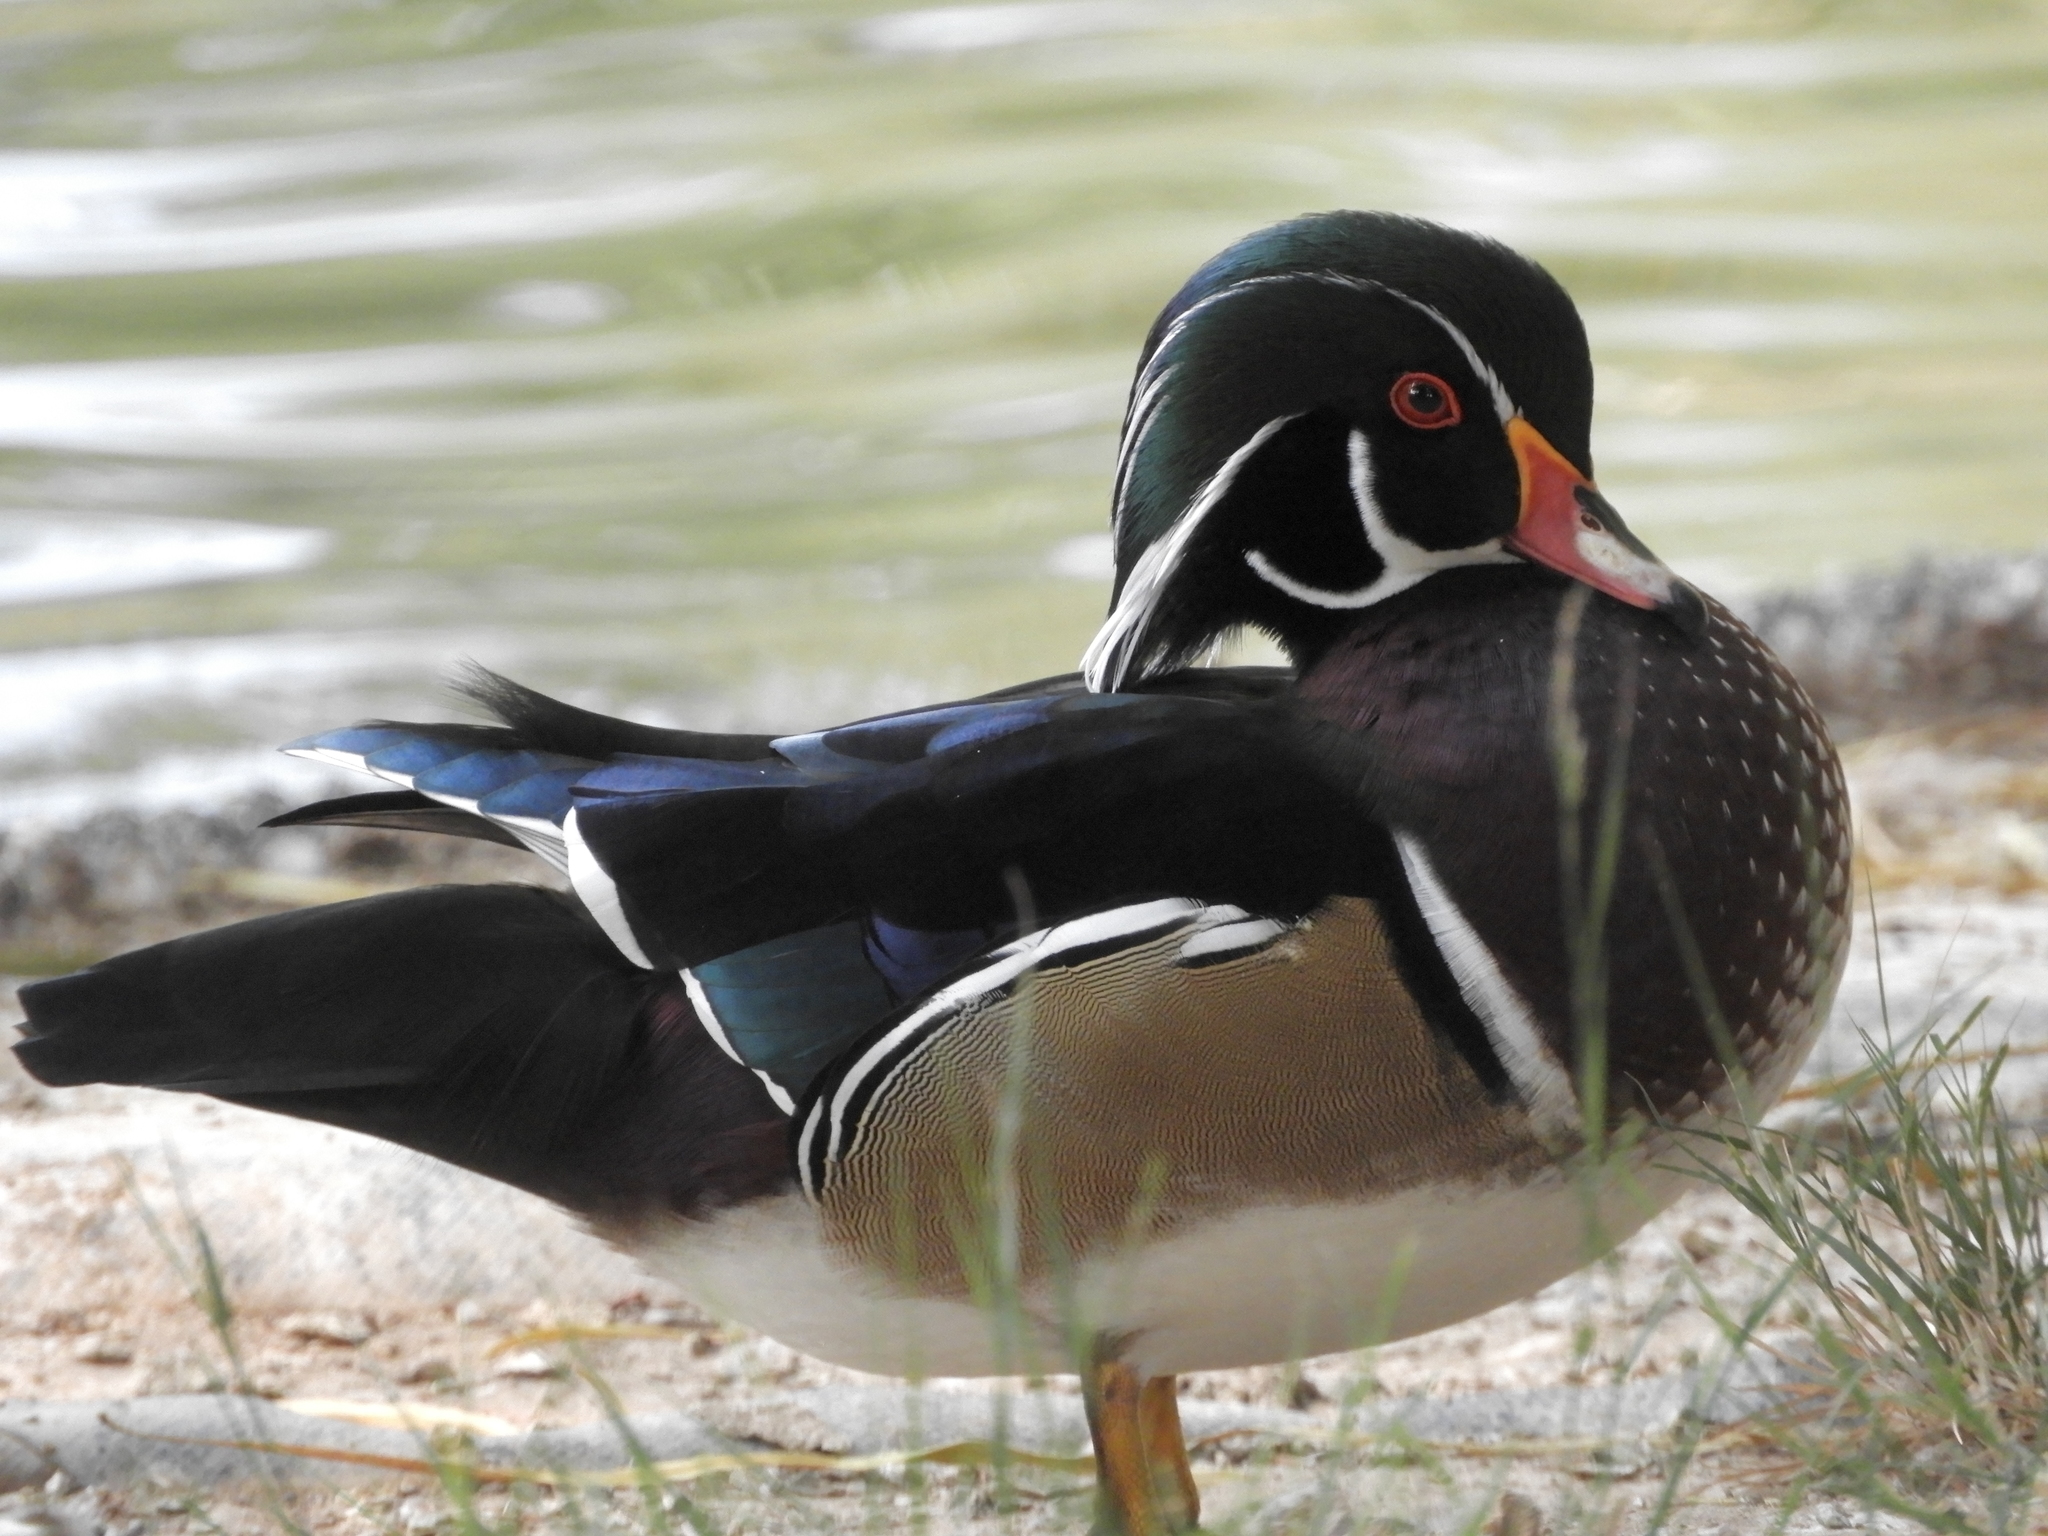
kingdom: Animalia
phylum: Chordata
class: Aves
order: Anseriformes
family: Anatidae
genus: Aix
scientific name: Aix sponsa
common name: Wood duck
